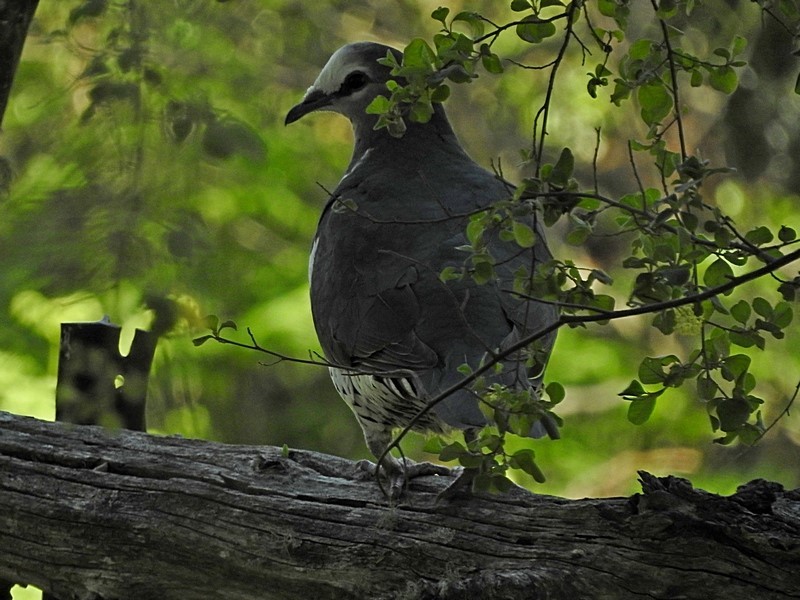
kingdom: Animalia
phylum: Chordata
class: Aves
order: Columbiformes
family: Columbidae
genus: Leucosarcia
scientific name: Leucosarcia melanoleuca
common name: Wonga pigeon
